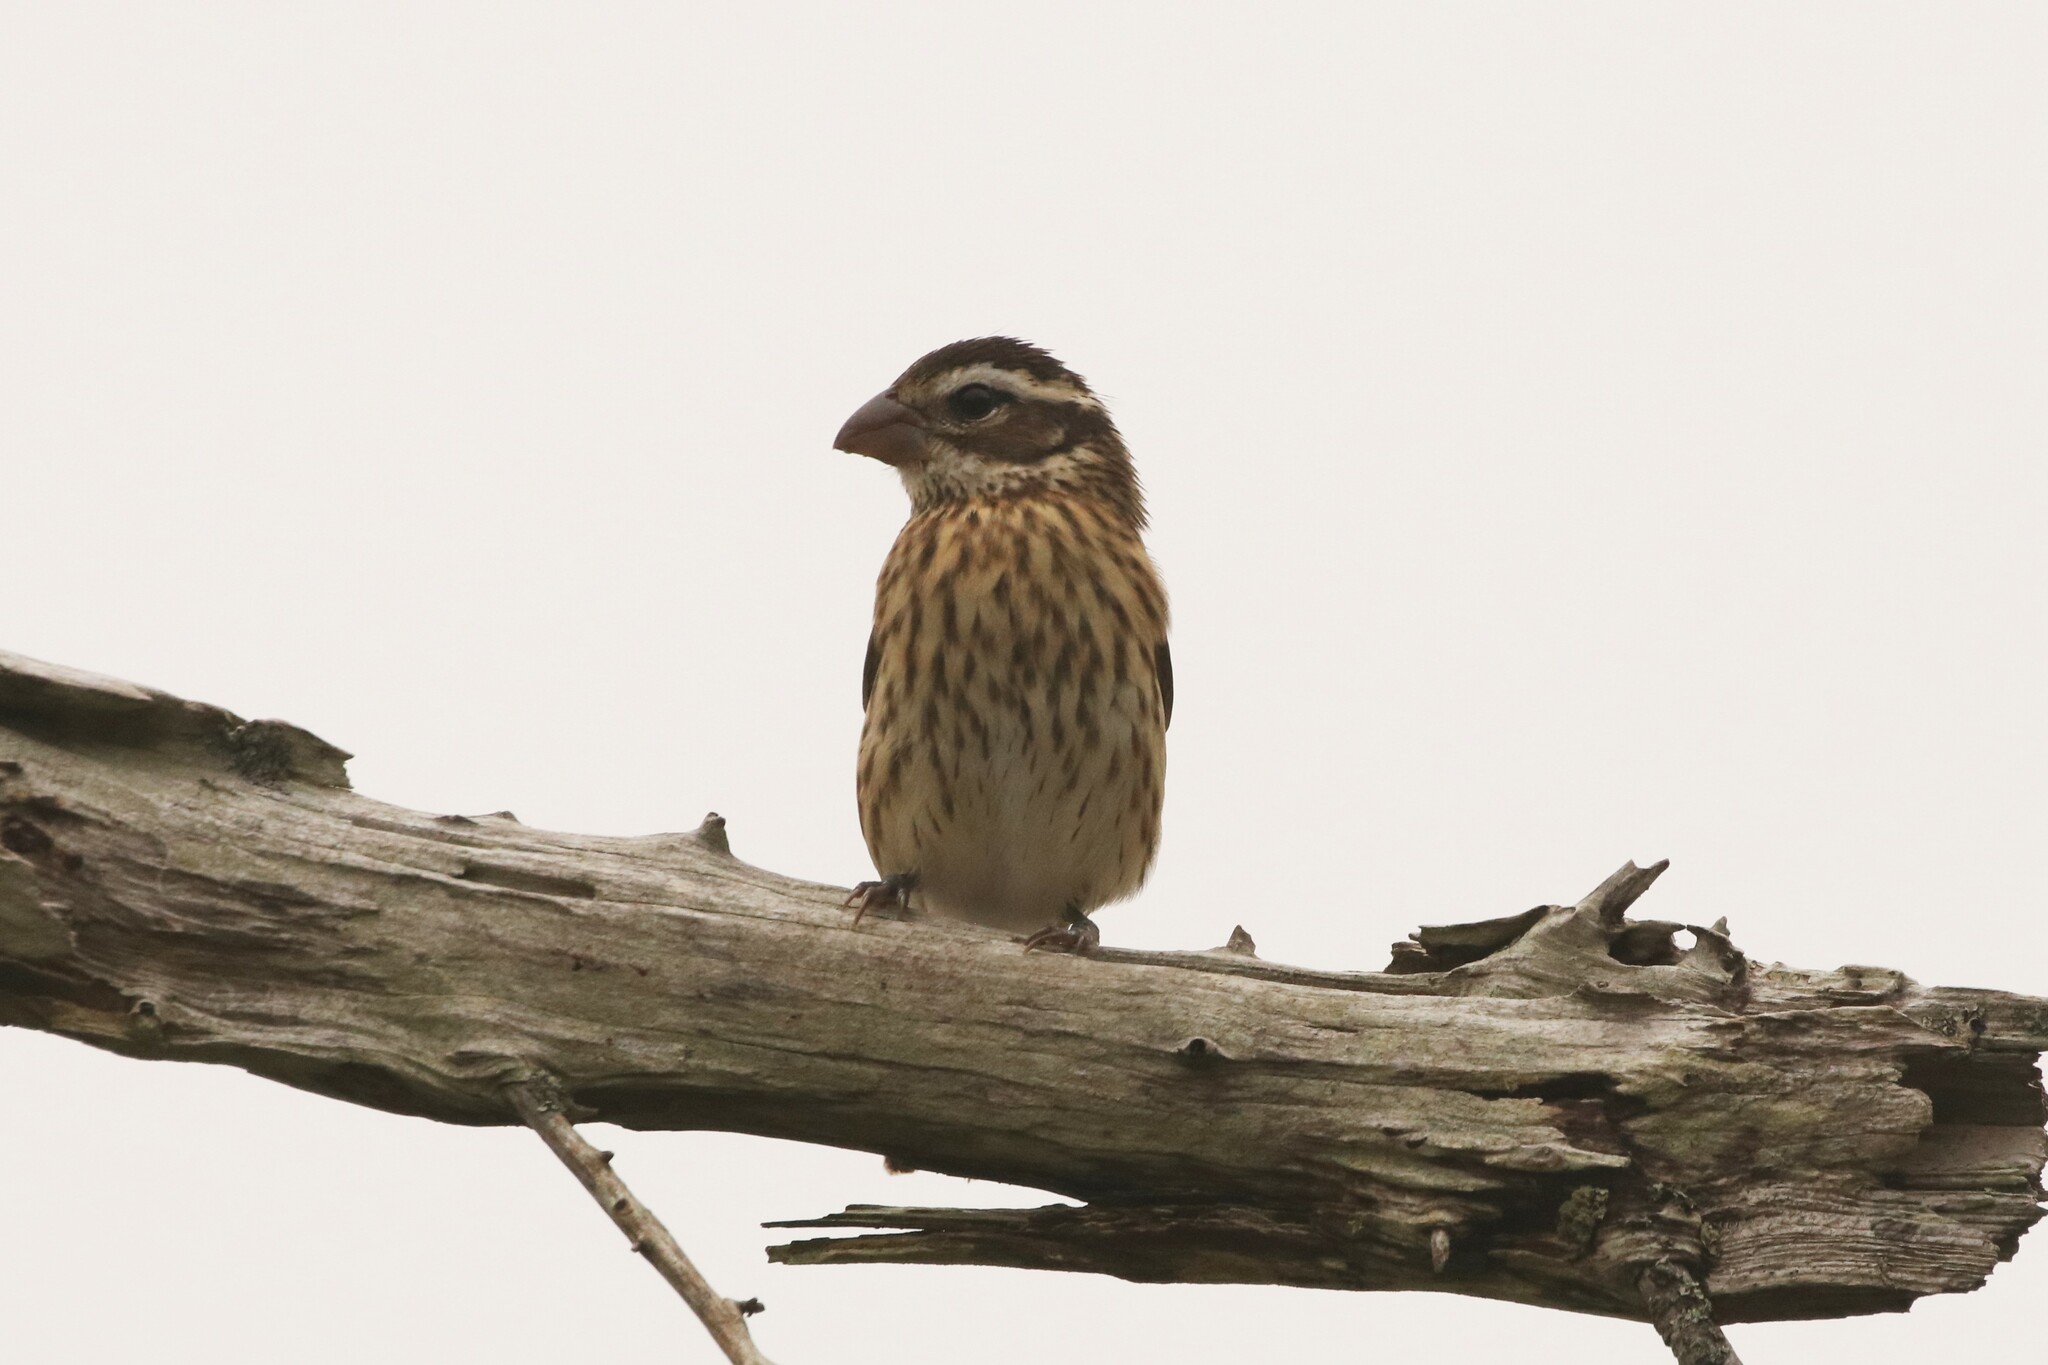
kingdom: Animalia
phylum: Chordata
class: Aves
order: Passeriformes
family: Cardinalidae
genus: Pheucticus
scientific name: Pheucticus ludovicianus
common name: Rose-breasted grosbeak
